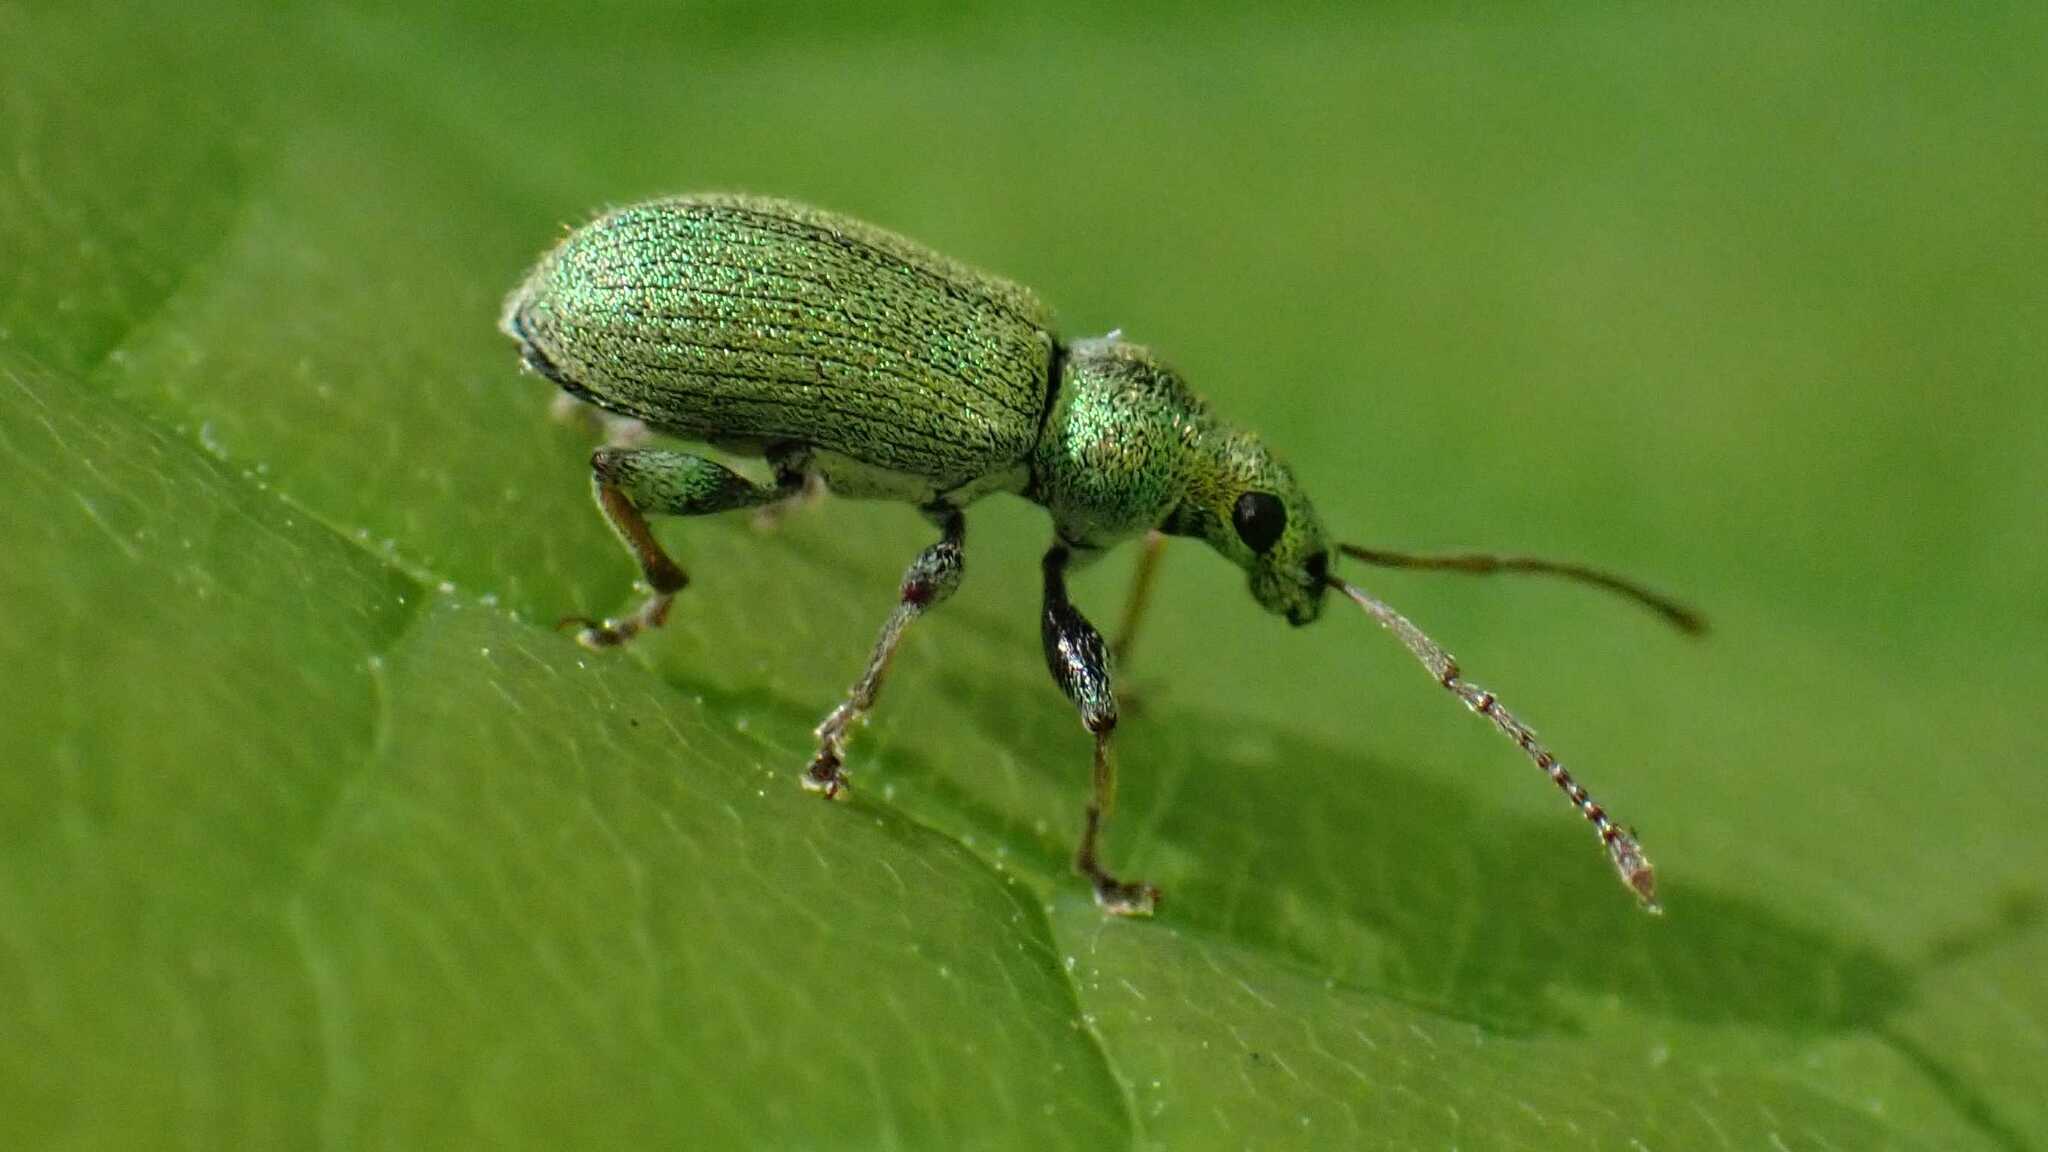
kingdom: Animalia
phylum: Arthropoda
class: Insecta
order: Coleoptera
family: Curculionidae
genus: Phyllobius
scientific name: Phyllobius argentatus
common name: Silver-green leaf weevil
